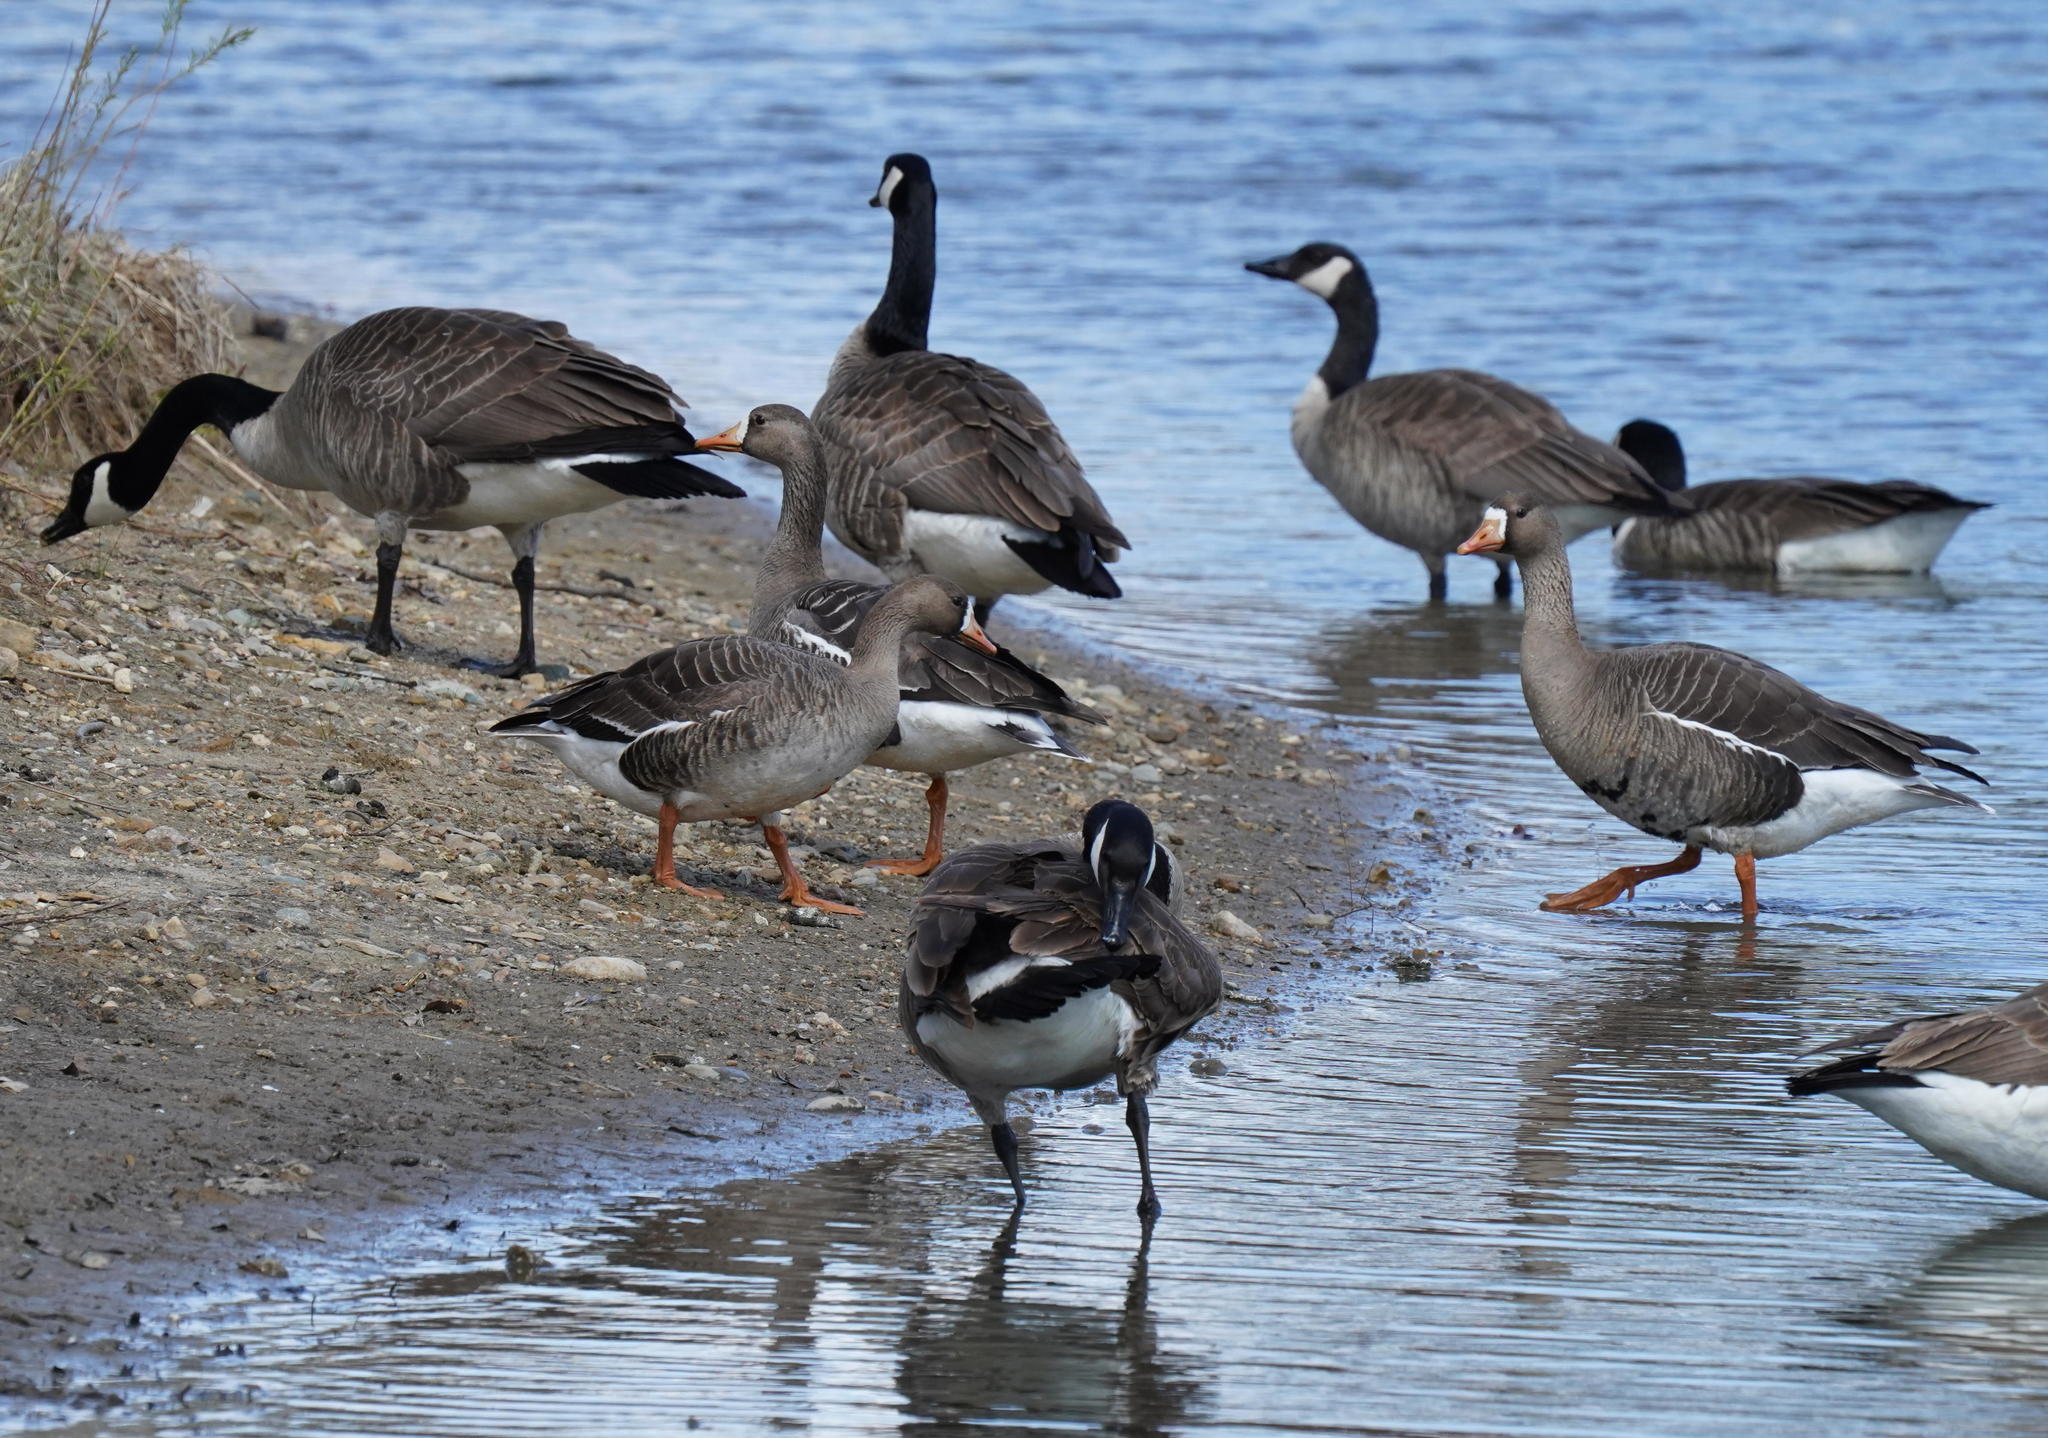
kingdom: Animalia
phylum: Chordata
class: Aves
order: Anseriformes
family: Anatidae
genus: Anser
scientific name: Anser albifrons
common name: Greater white-fronted goose
